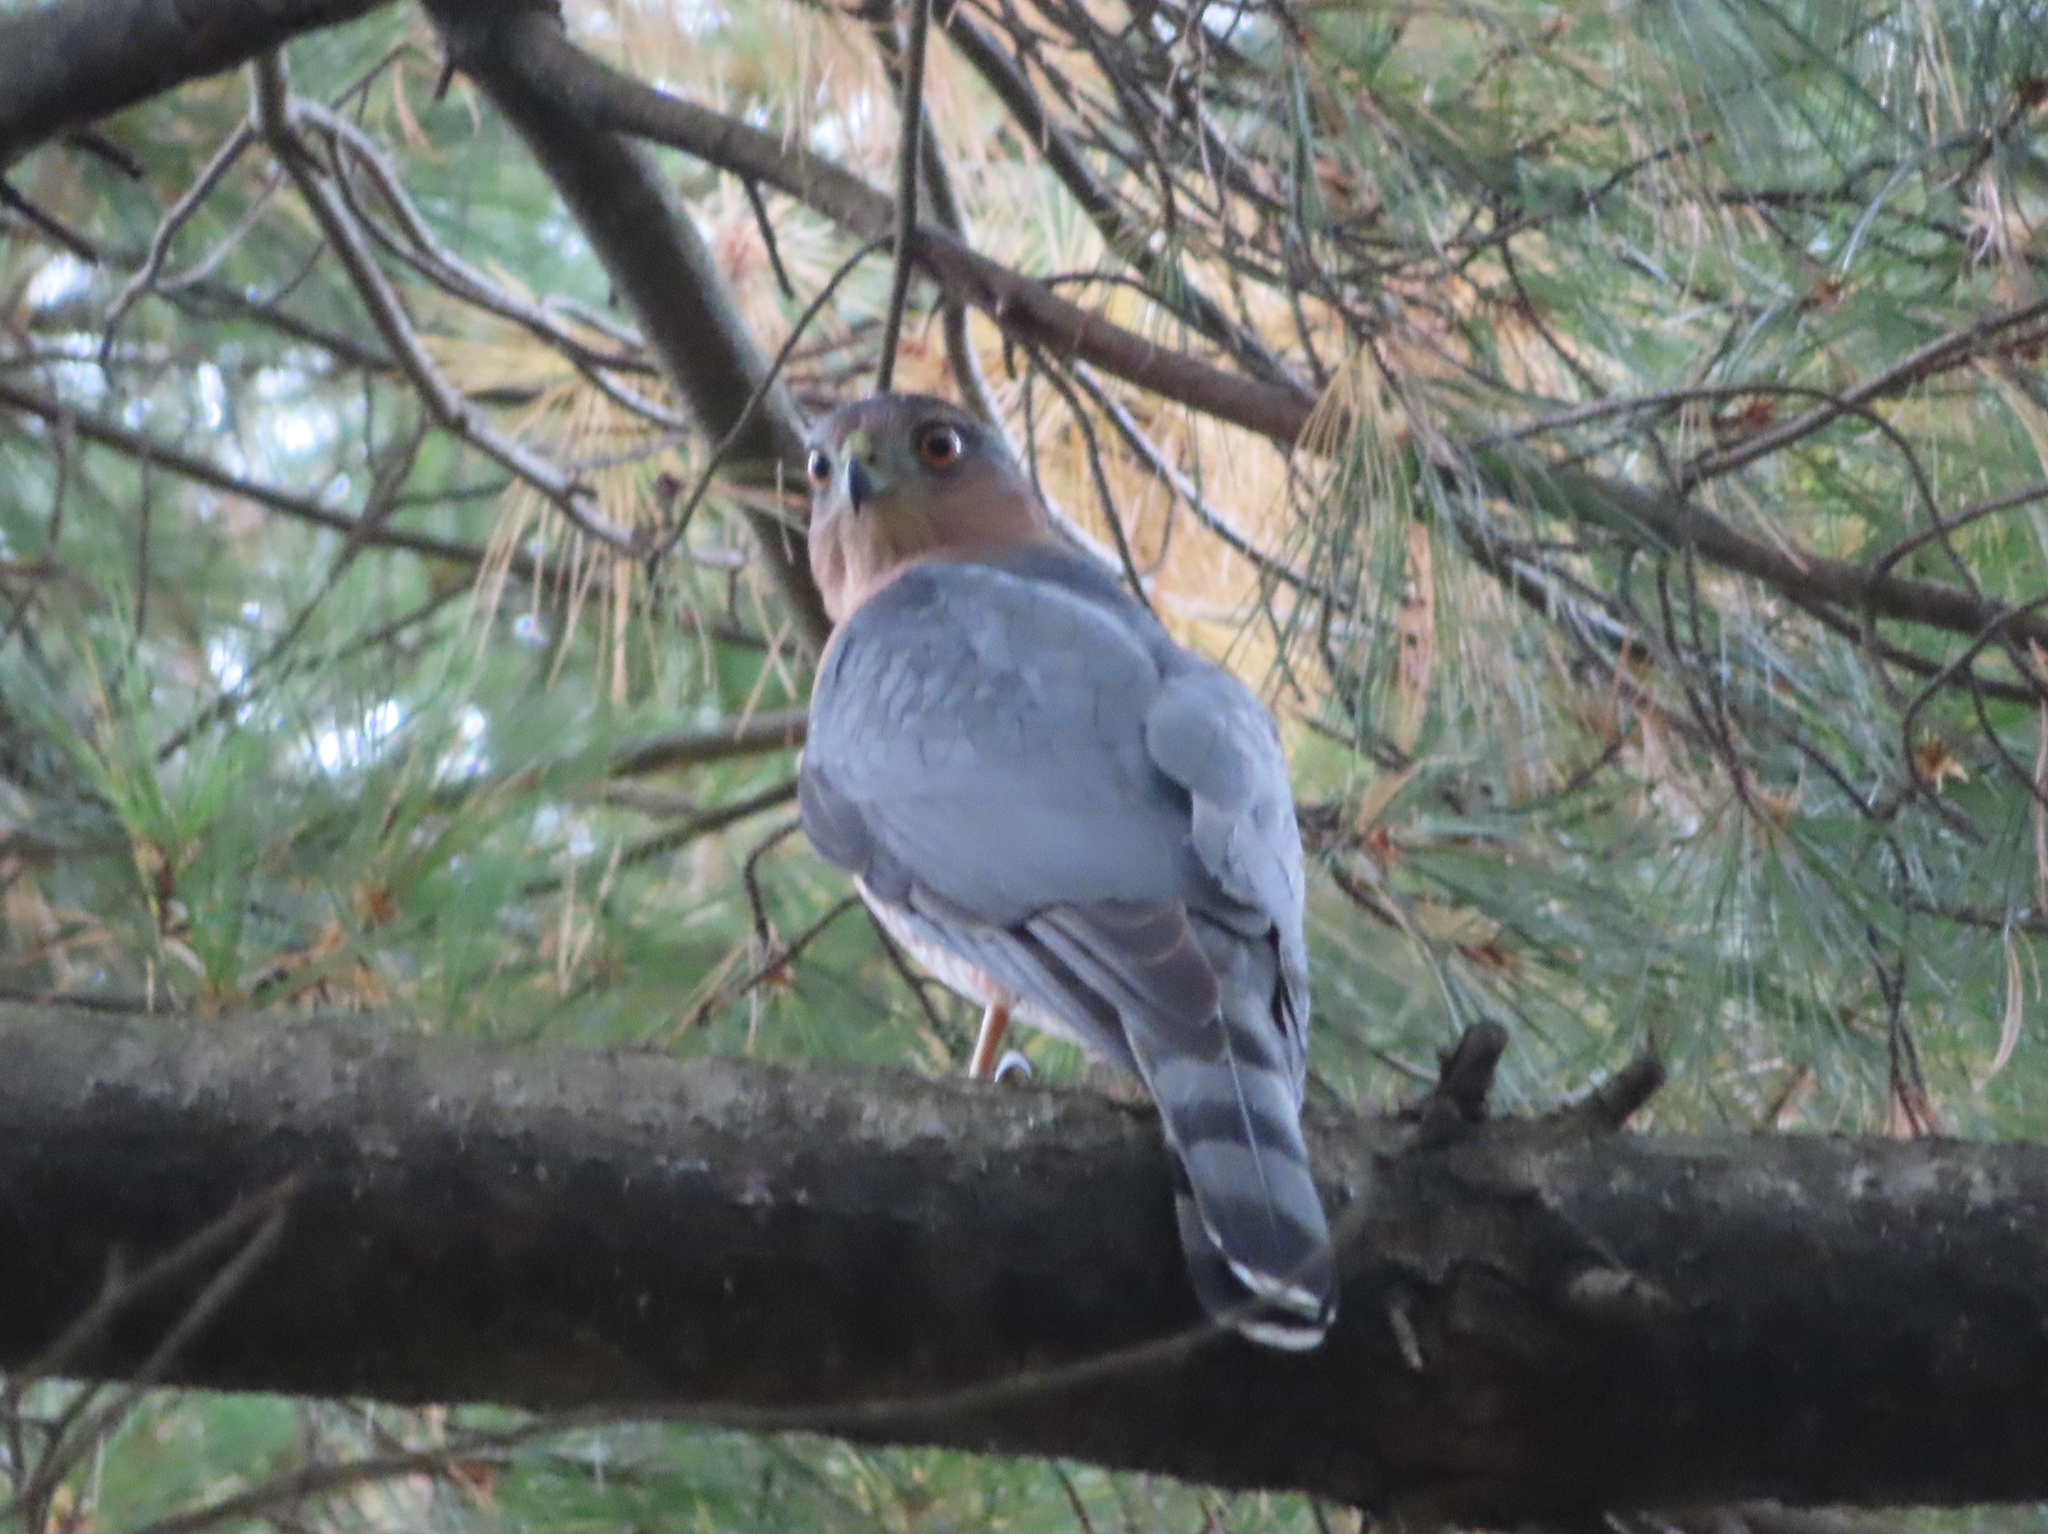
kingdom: Animalia
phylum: Chordata
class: Aves
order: Accipitriformes
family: Accipitridae
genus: Accipiter
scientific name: Accipiter cooperii
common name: Cooper's hawk
